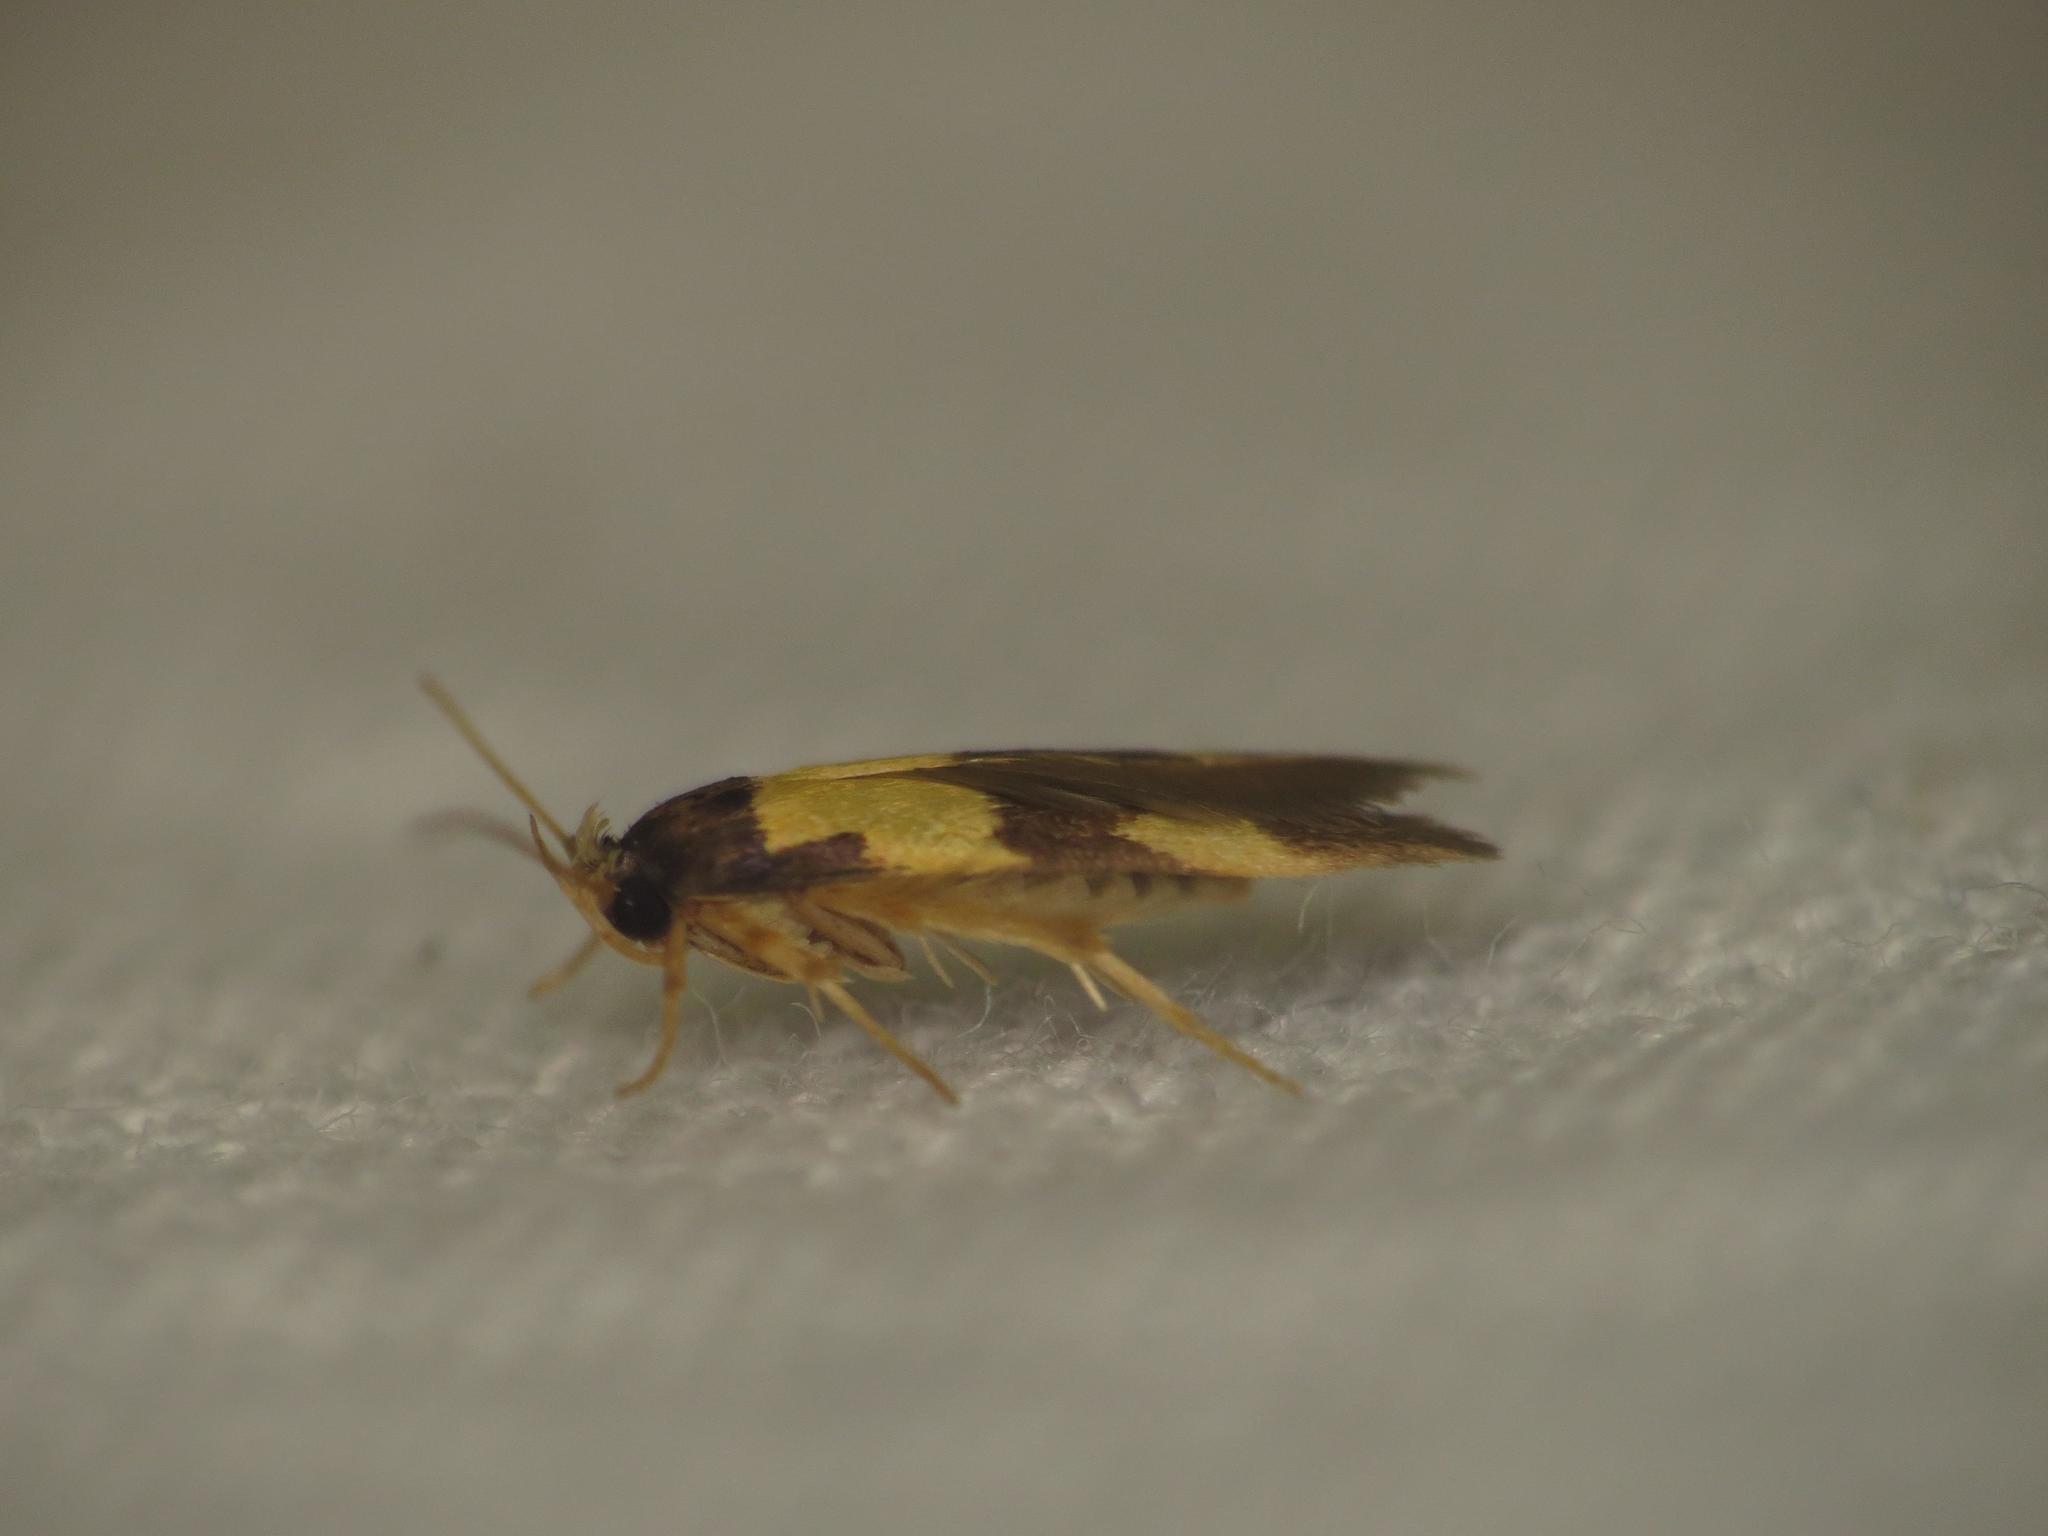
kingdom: Animalia
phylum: Arthropoda
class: Insecta
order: Lepidoptera
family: Stathmopodidae
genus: Stathmopoda
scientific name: Stathmopoda mimantha
